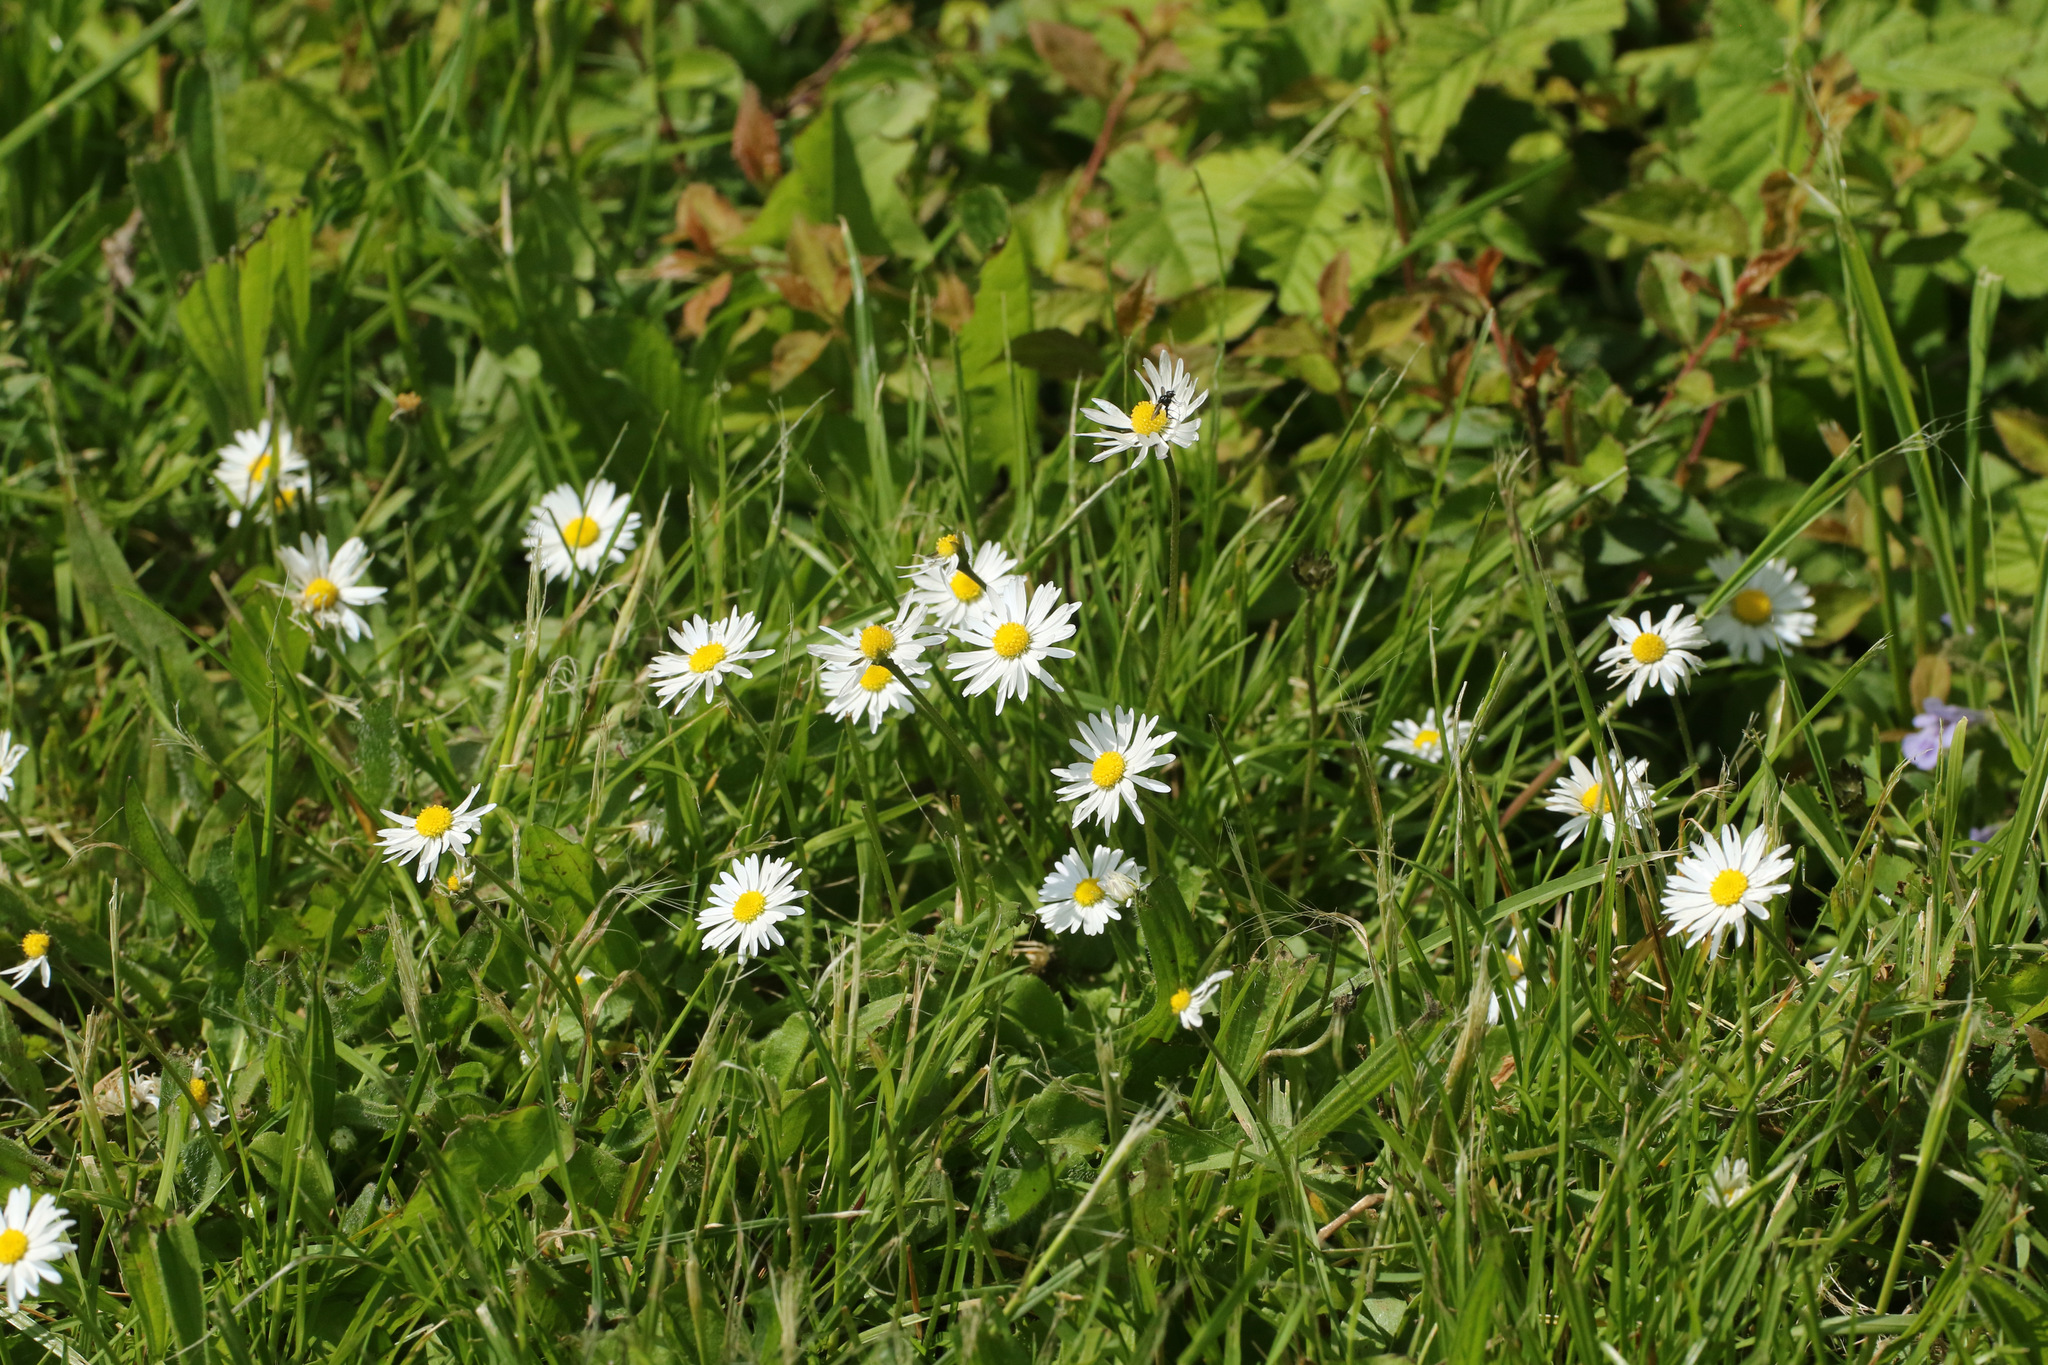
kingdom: Plantae
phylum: Tracheophyta
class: Magnoliopsida
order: Asterales
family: Asteraceae
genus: Bellis
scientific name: Bellis perennis
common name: Lawndaisy
